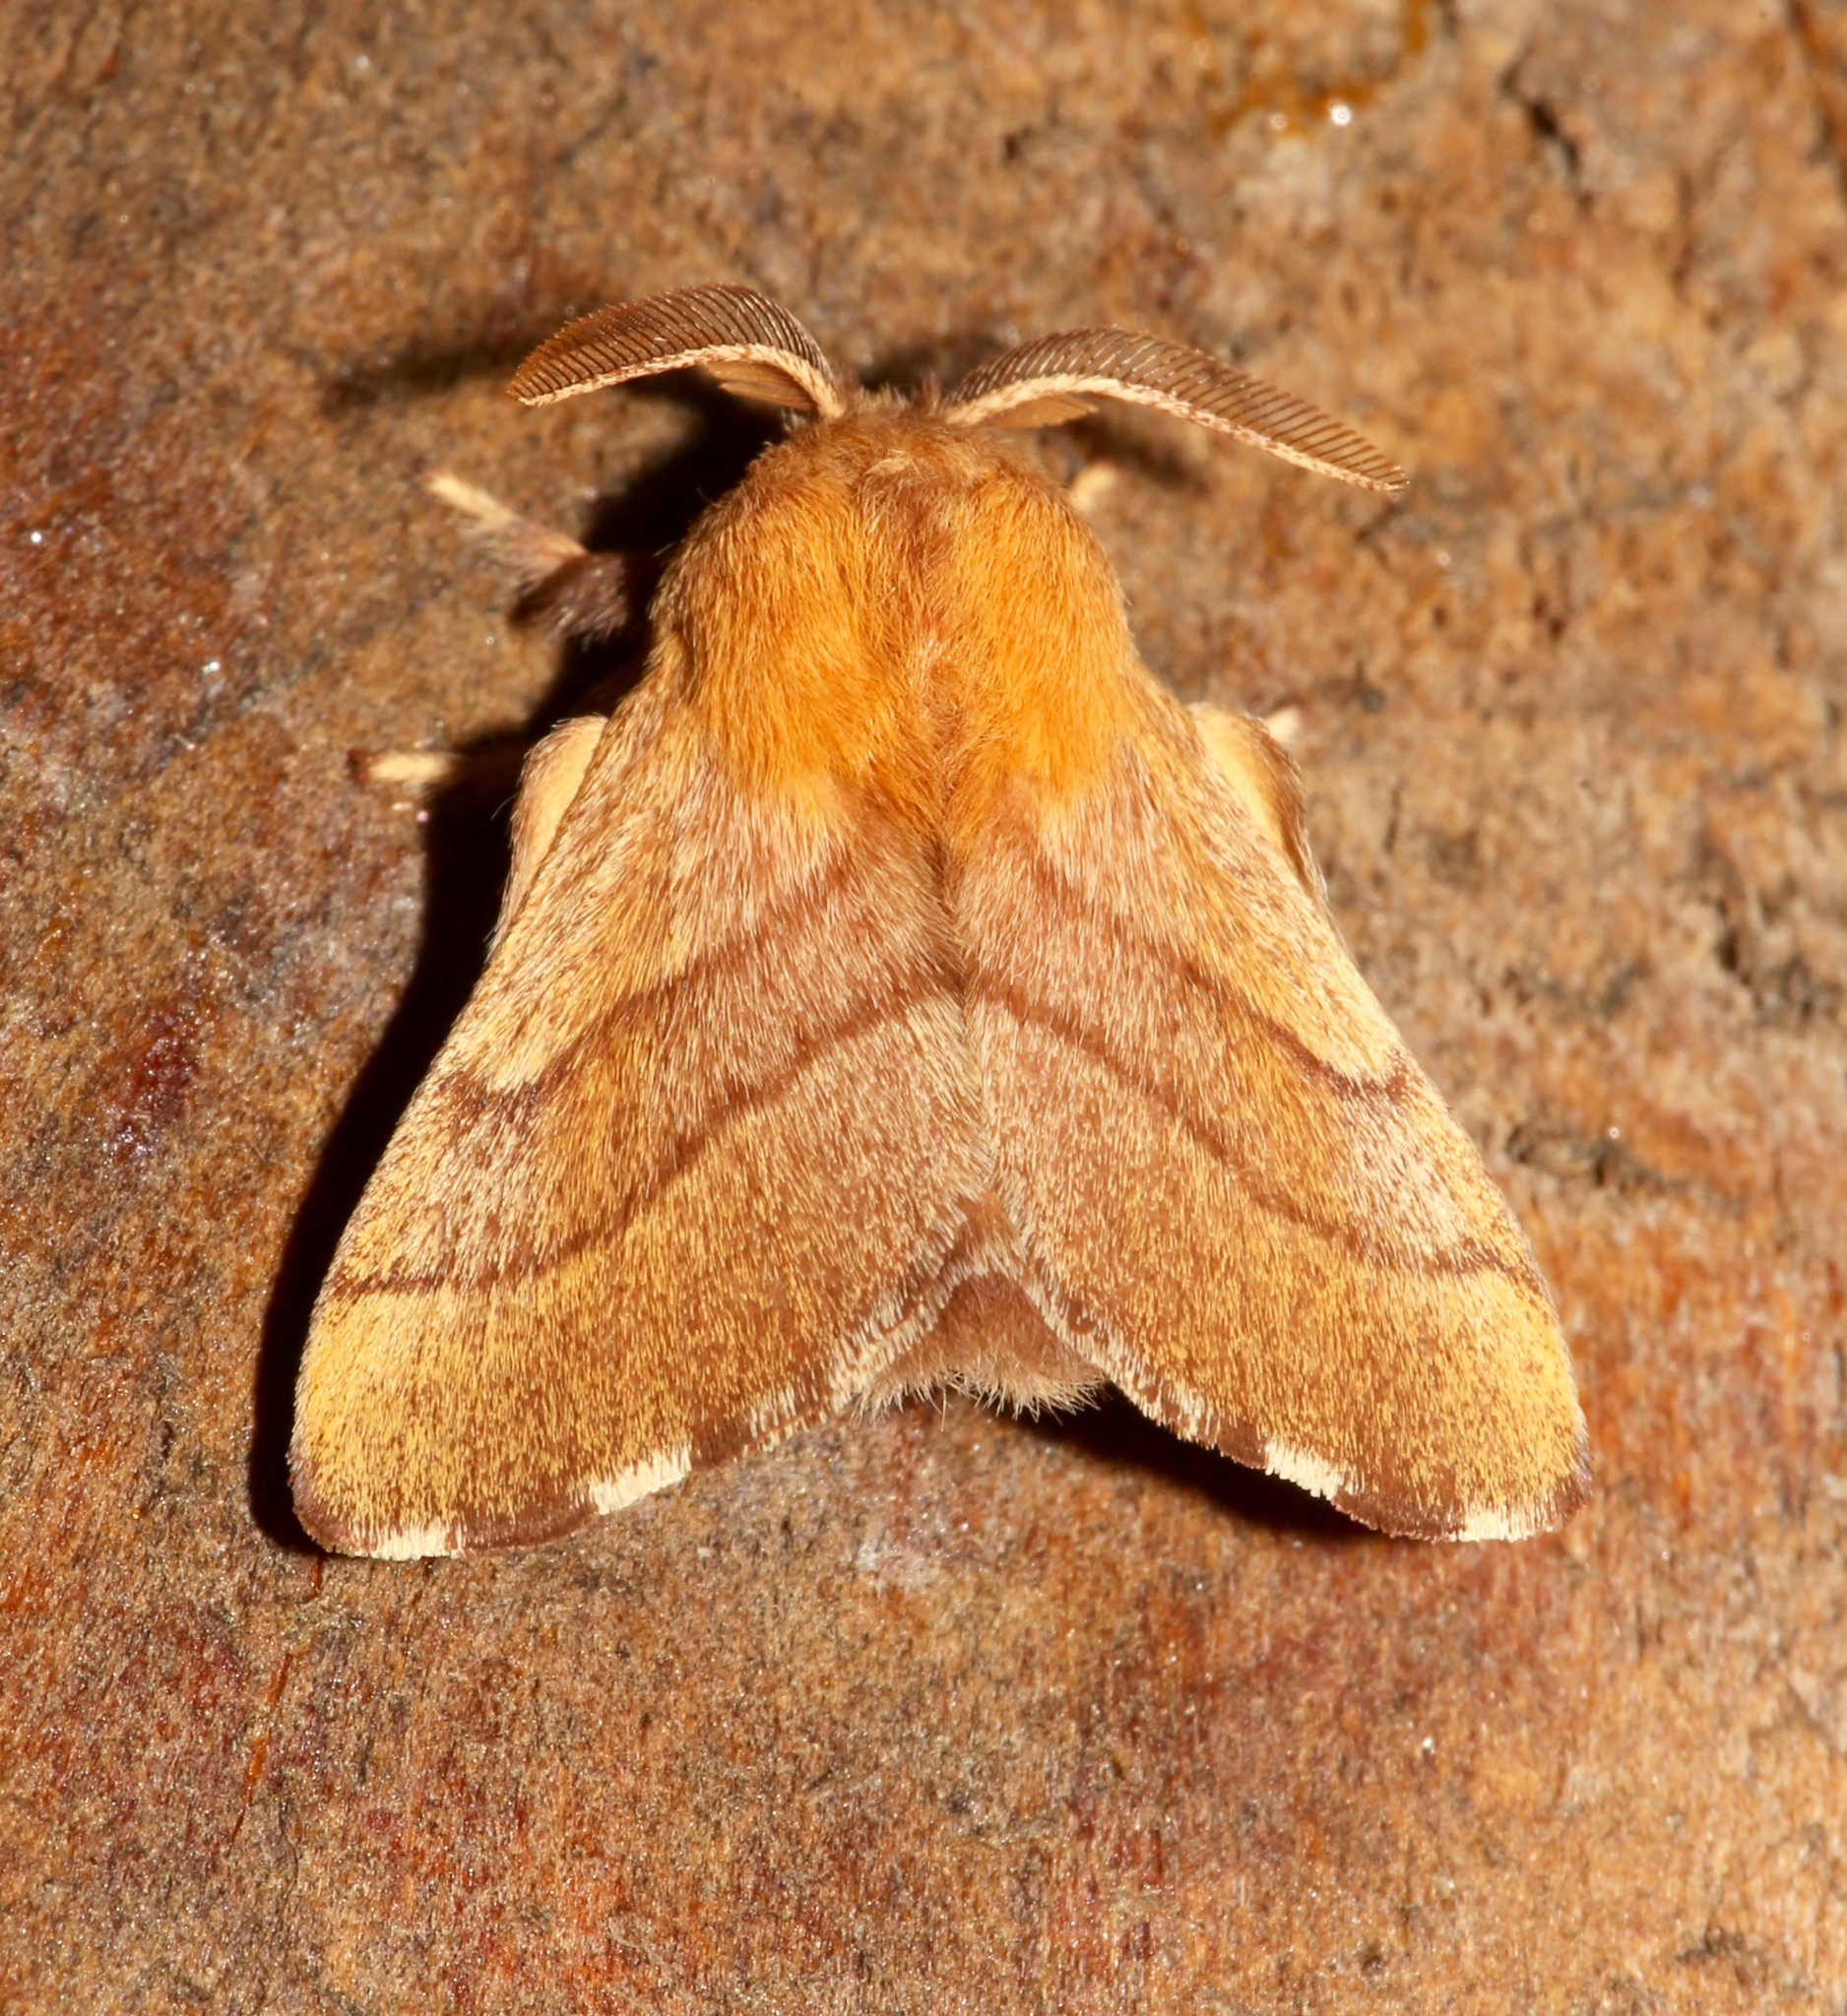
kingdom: Animalia
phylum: Arthropoda
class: Insecta
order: Lepidoptera
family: Lasiocampidae
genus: Malacosoma
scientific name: Malacosoma disstria
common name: Forest tent caterpillar
